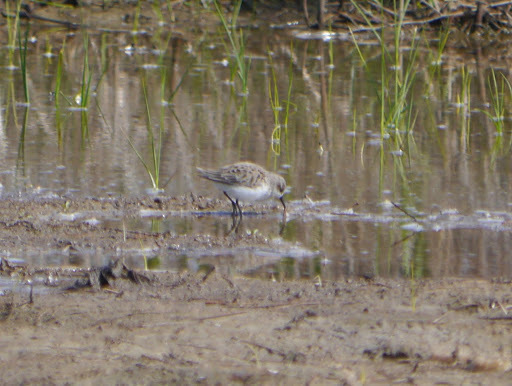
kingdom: Animalia
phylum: Chordata
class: Aves
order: Charadriiformes
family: Scolopacidae
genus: Calidris
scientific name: Calidris pusilla
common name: Semipalmated sandpiper
